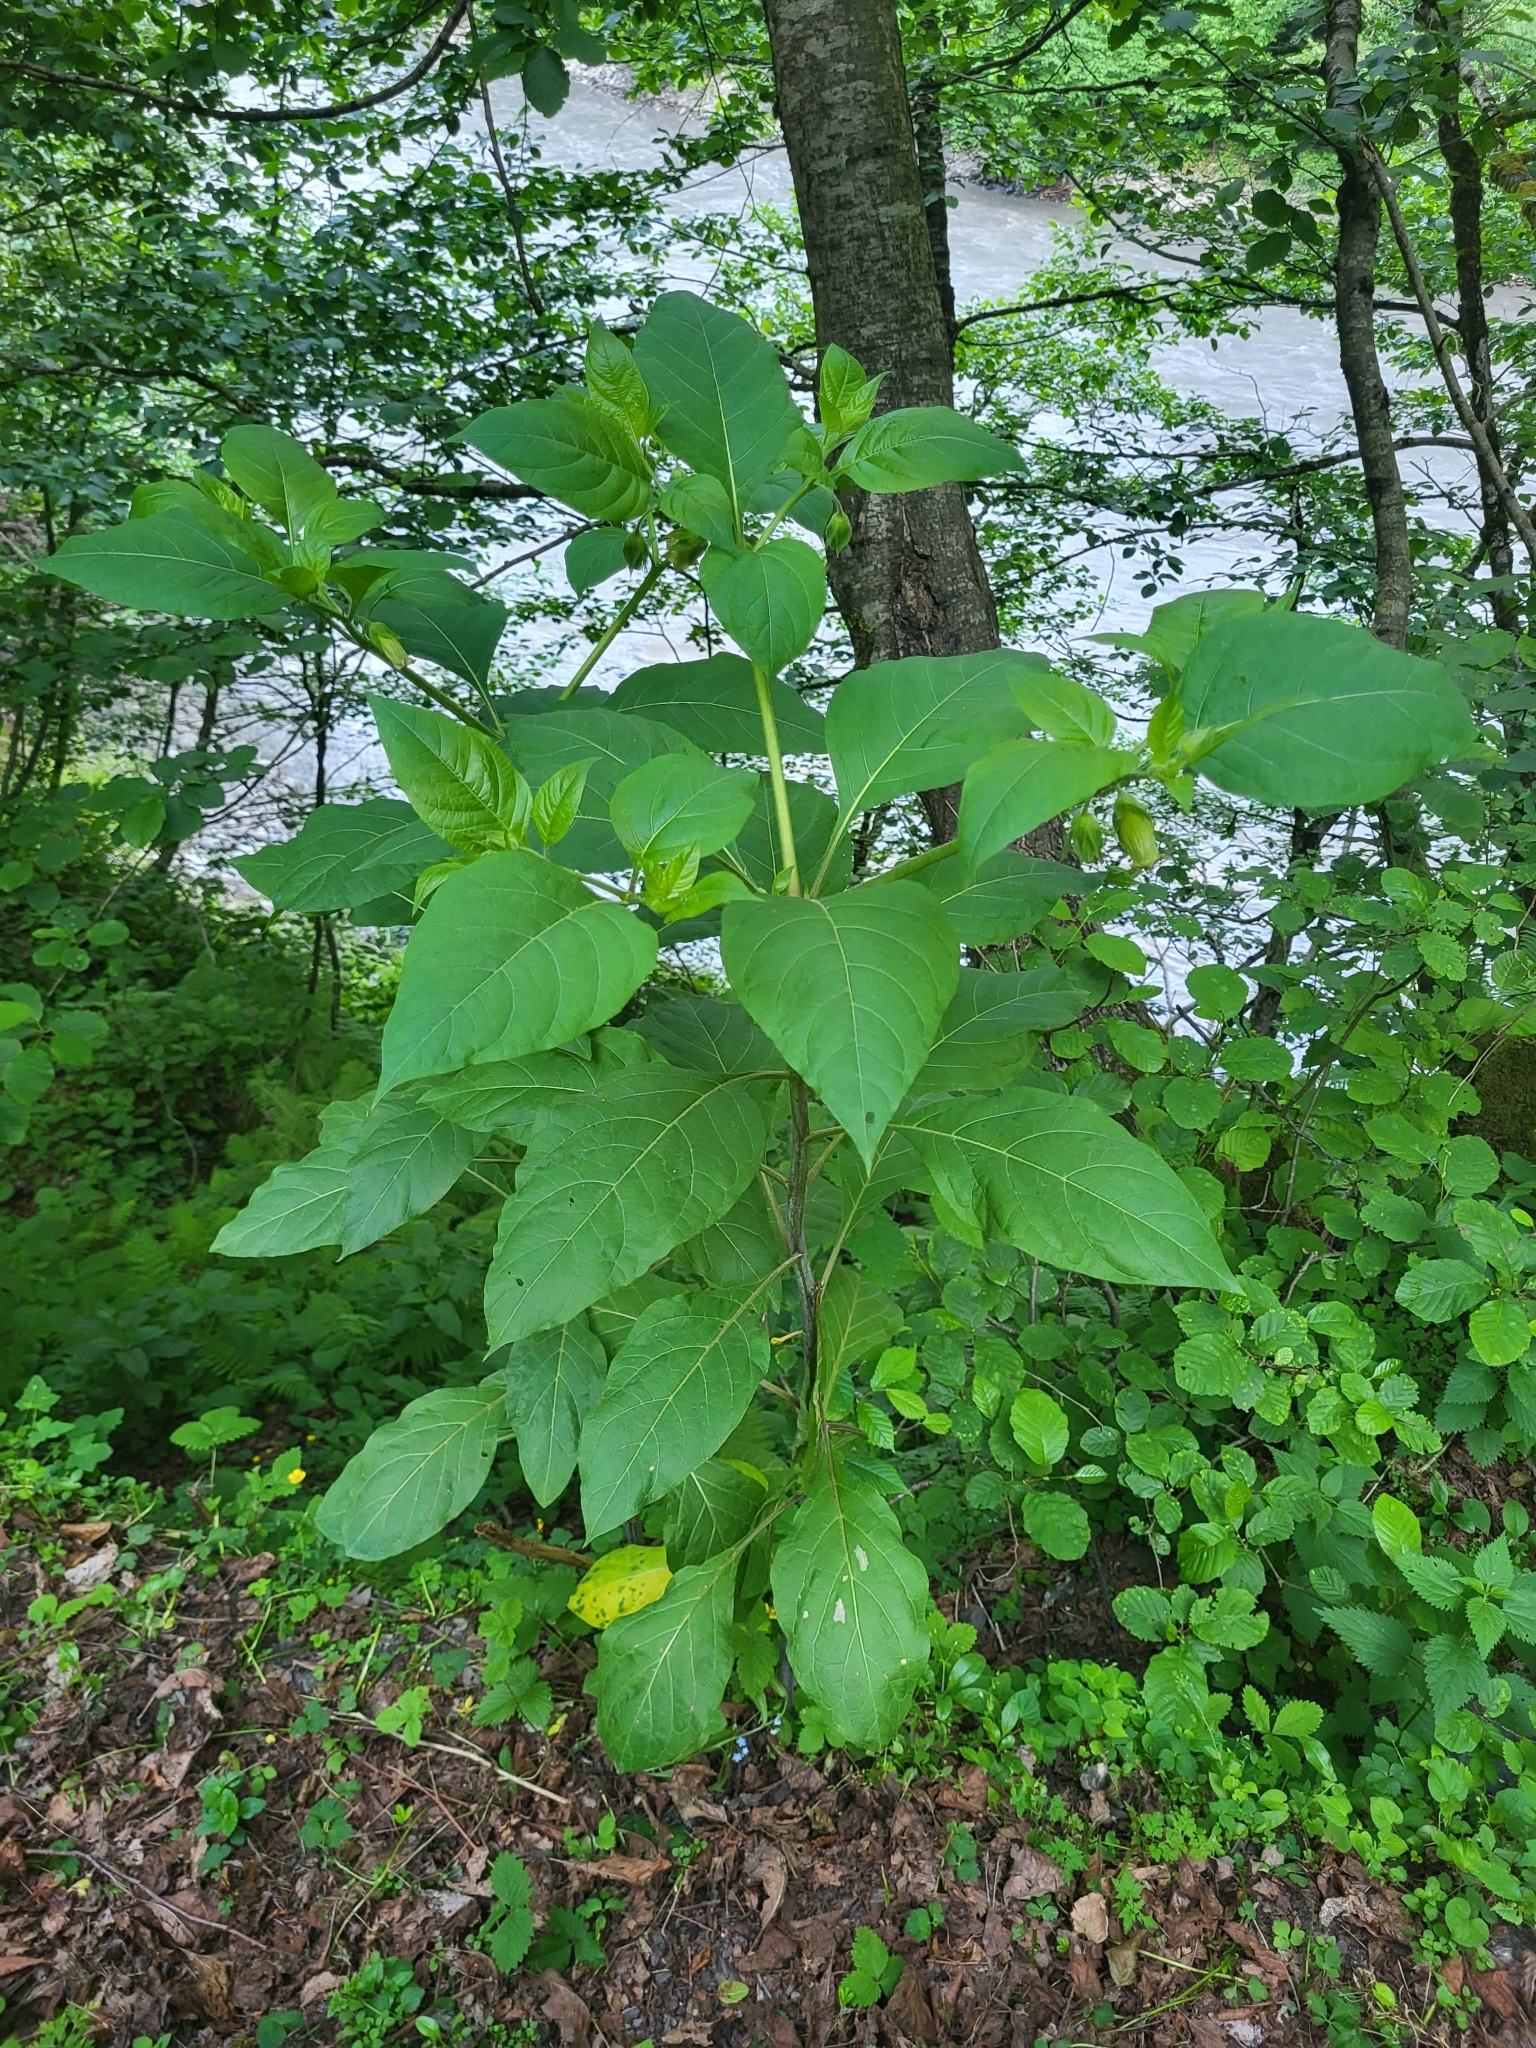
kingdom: Plantae
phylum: Tracheophyta
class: Magnoliopsida
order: Solanales
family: Solanaceae
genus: Atropa
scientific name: Atropa belladonna
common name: Deadly nightshade
